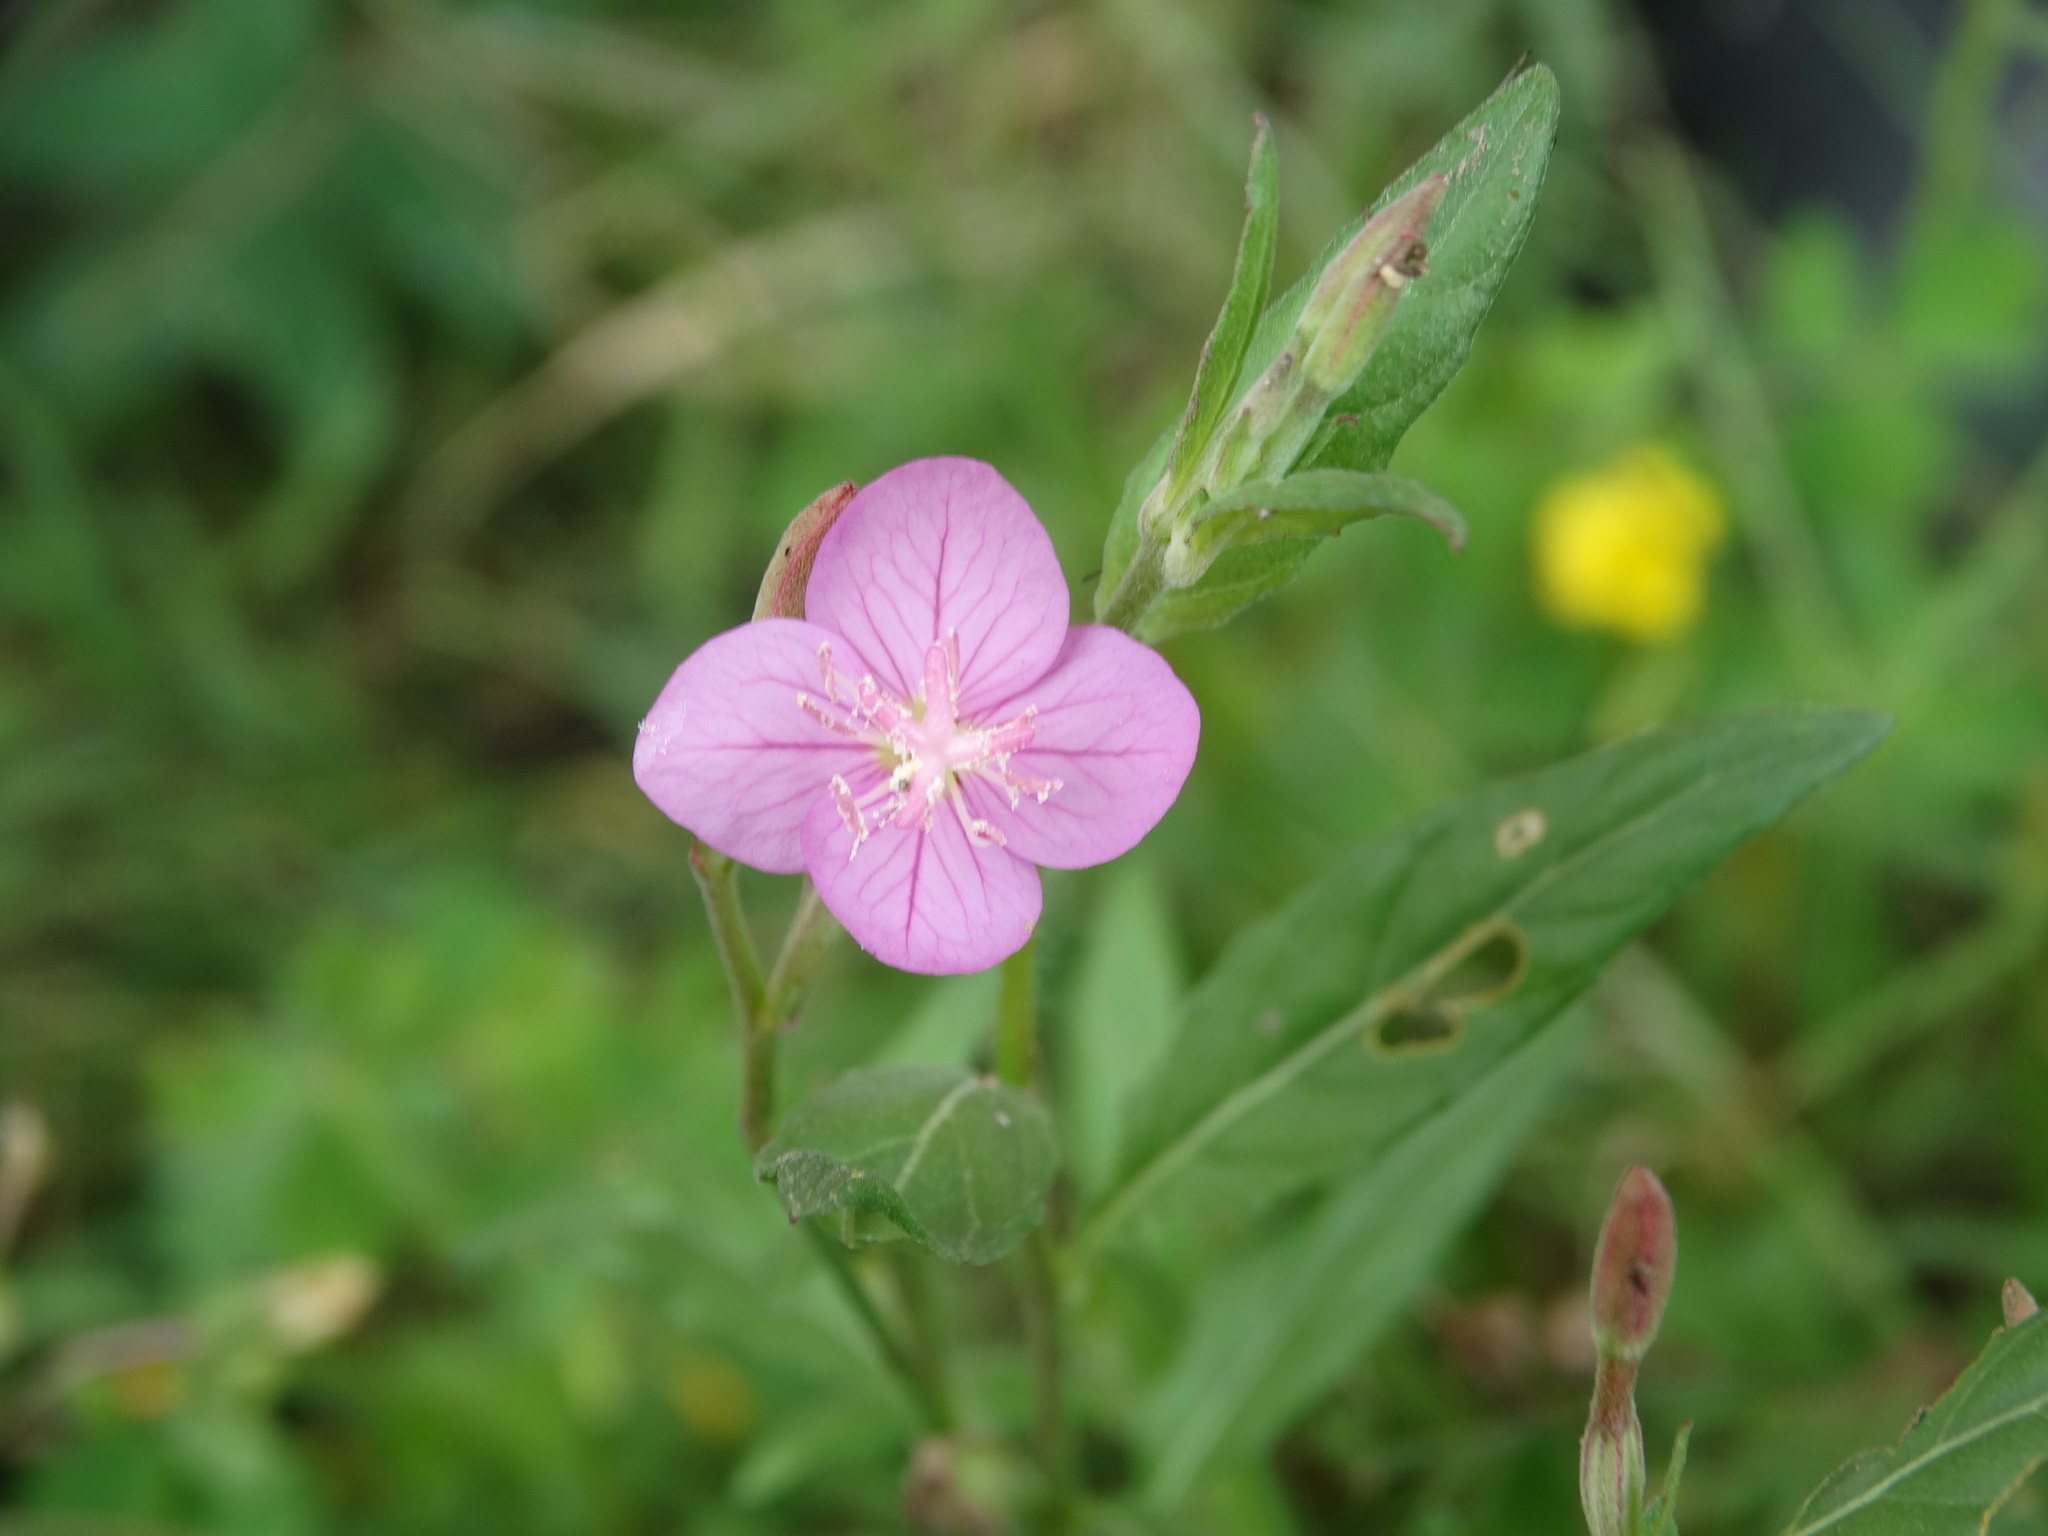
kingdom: Plantae
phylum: Tracheophyta
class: Magnoliopsida
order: Myrtales
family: Onagraceae
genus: Oenothera
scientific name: Oenothera rosea
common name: Rosy evening-primrose
